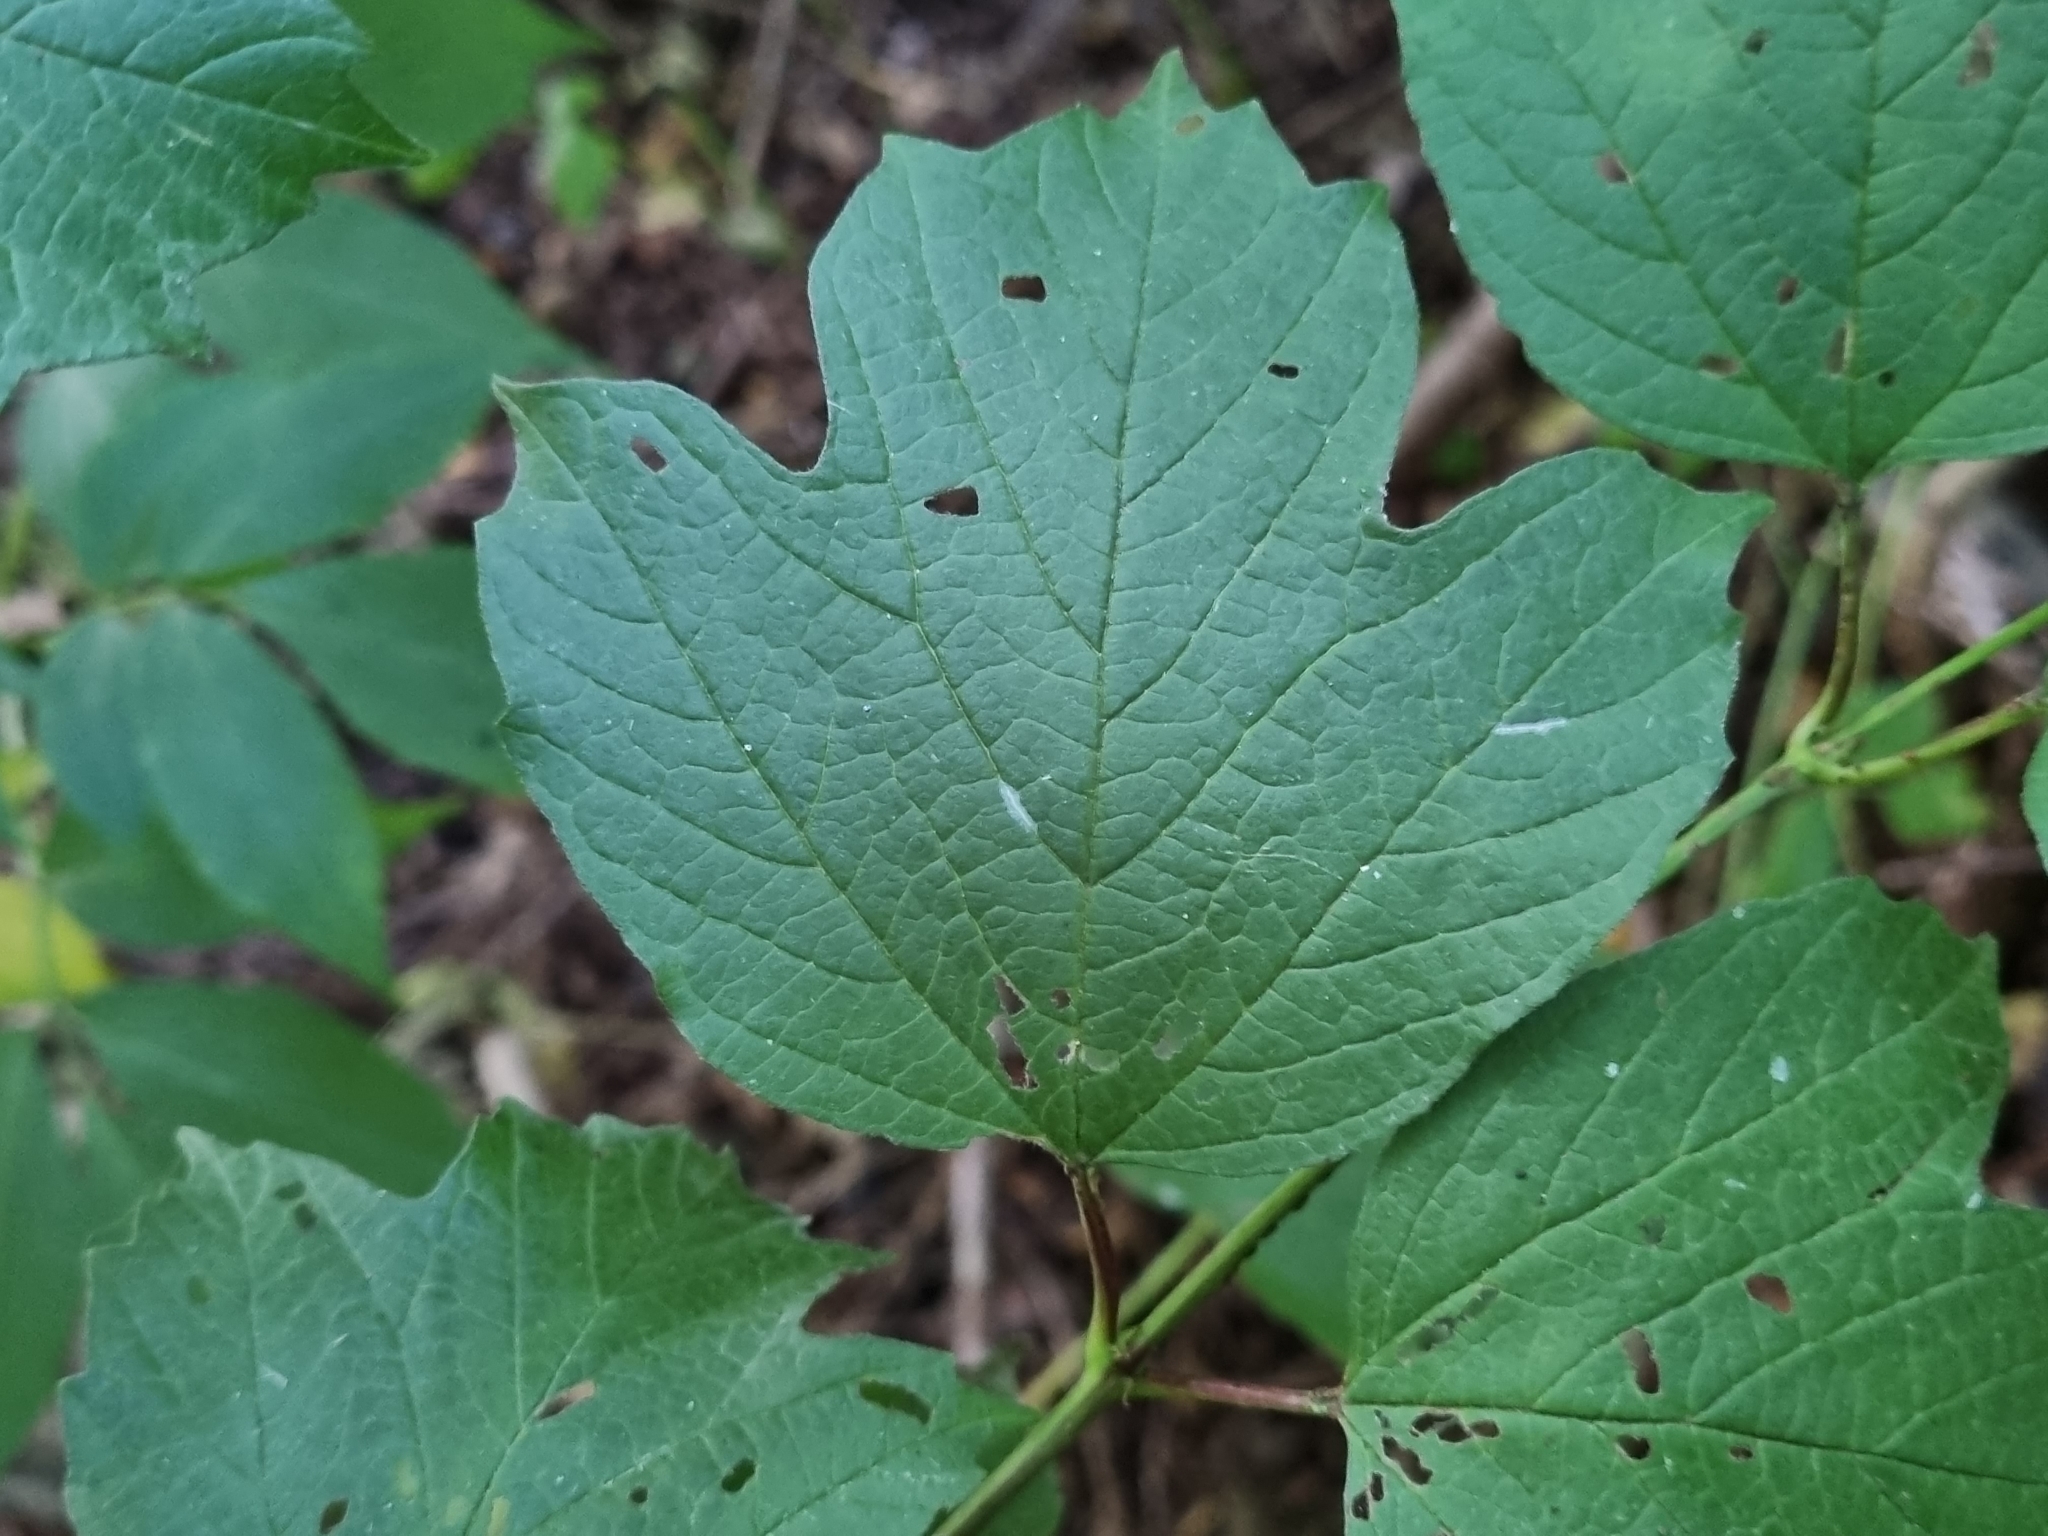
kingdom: Plantae
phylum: Tracheophyta
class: Magnoliopsida
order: Dipsacales
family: Viburnaceae
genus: Viburnum
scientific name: Viburnum opulus
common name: Guelder-rose
